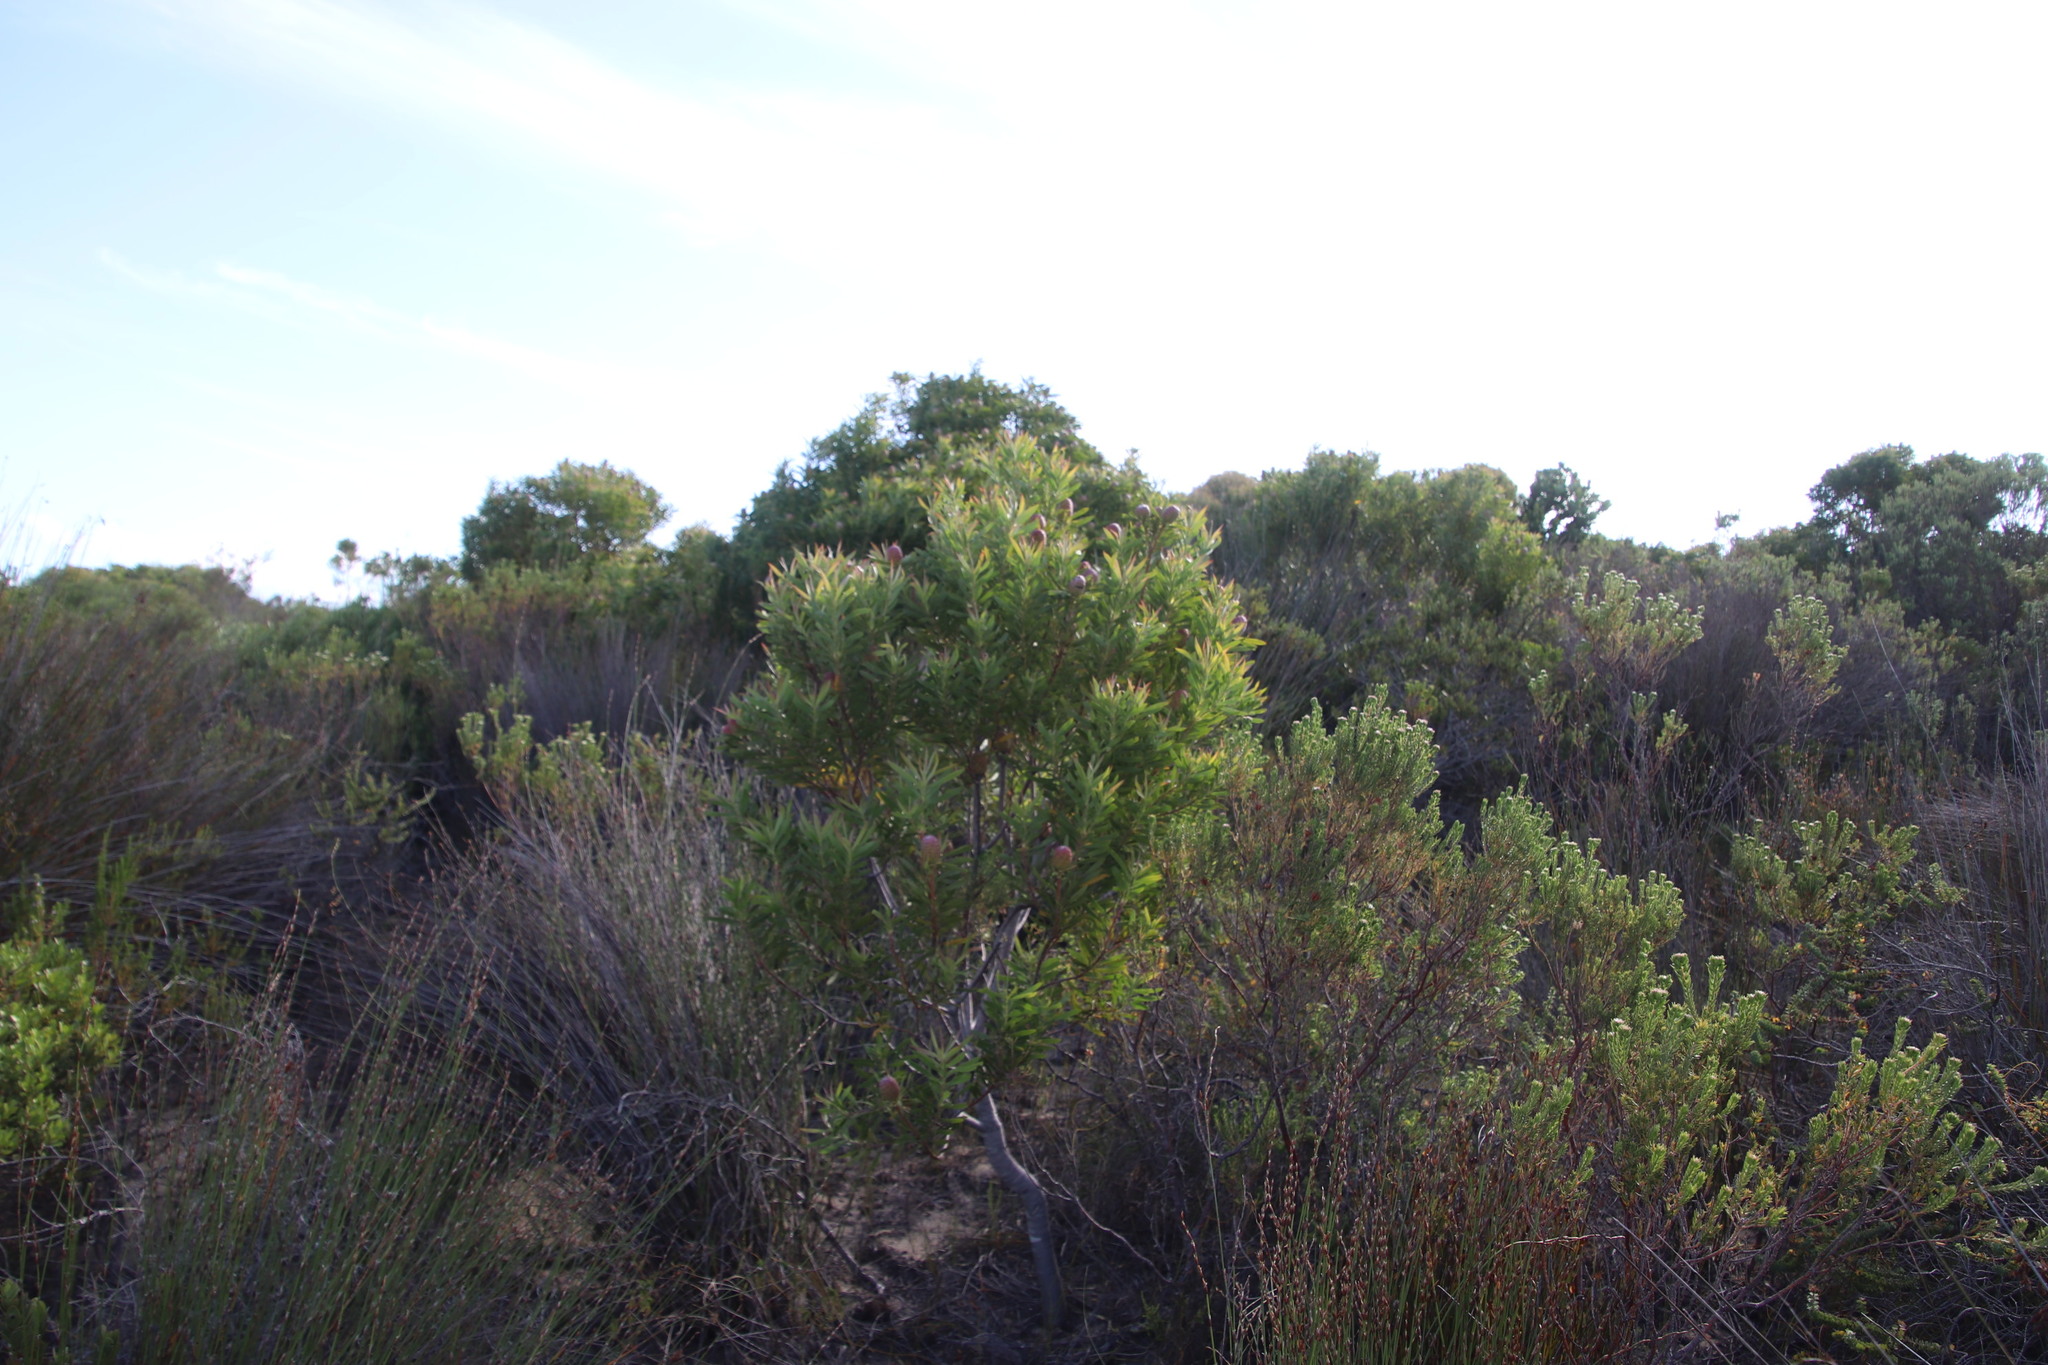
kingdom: Plantae
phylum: Tracheophyta
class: Magnoliopsida
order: Proteales
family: Proteaceae
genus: Leucadendron
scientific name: Leucadendron xanthoconus
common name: Sickle-leaf conebush
